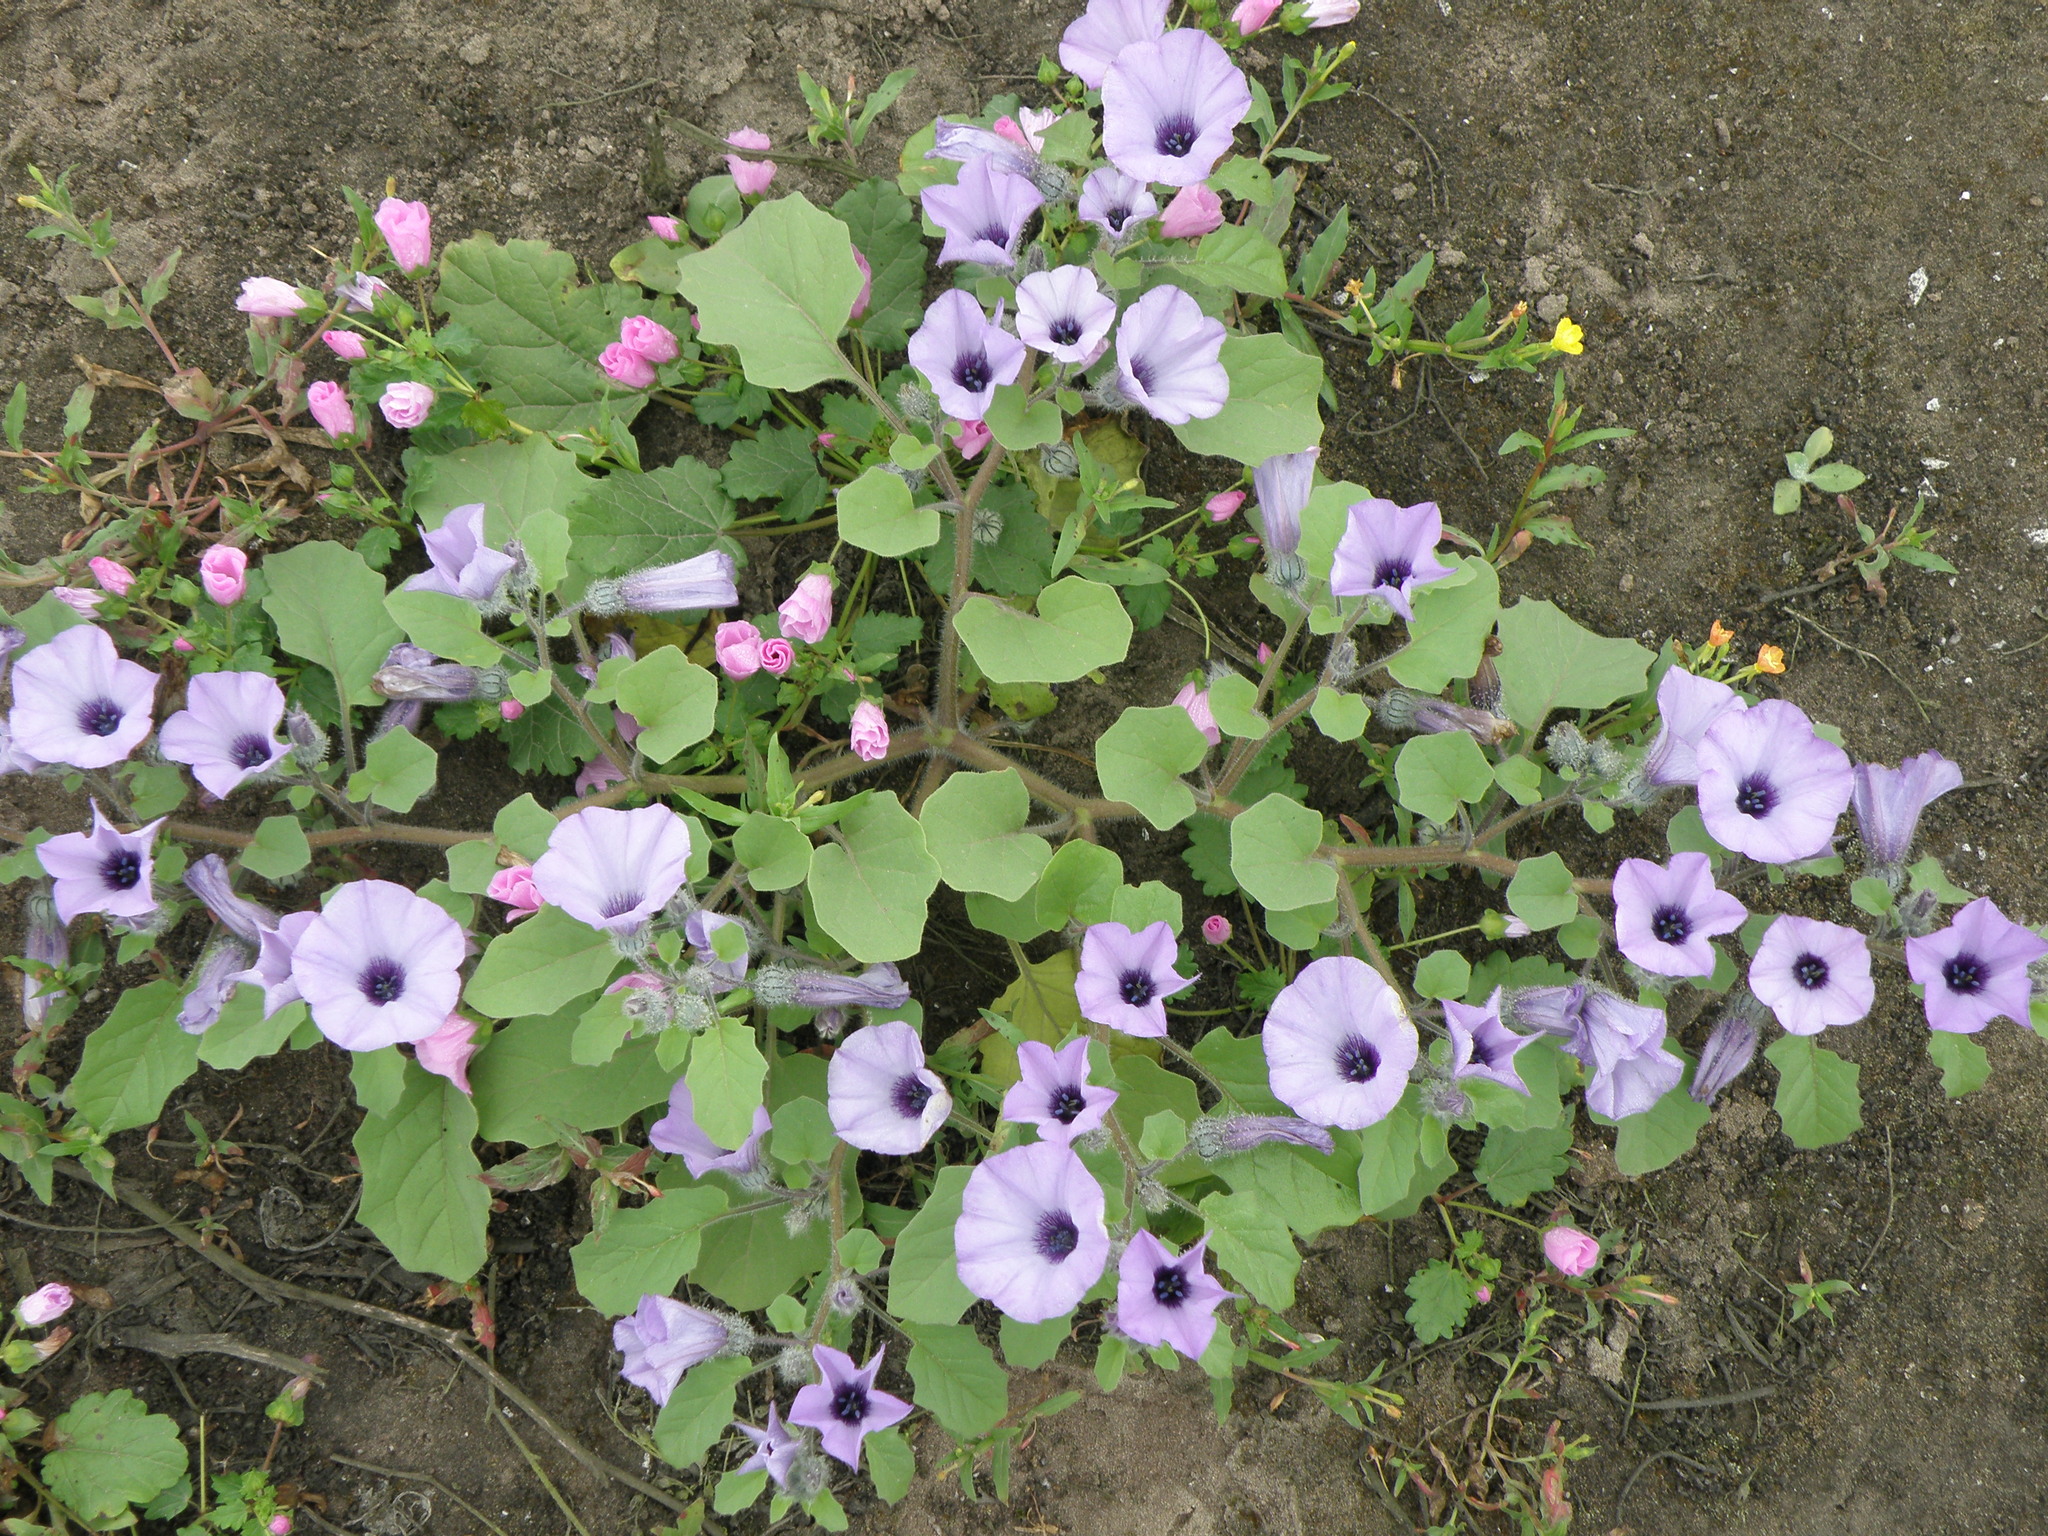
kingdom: Plantae
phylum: Tracheophyta
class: Magnoliopsida
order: Solanales
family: Solanaceae
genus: Exodeconus
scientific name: Exodeconus prostratus
